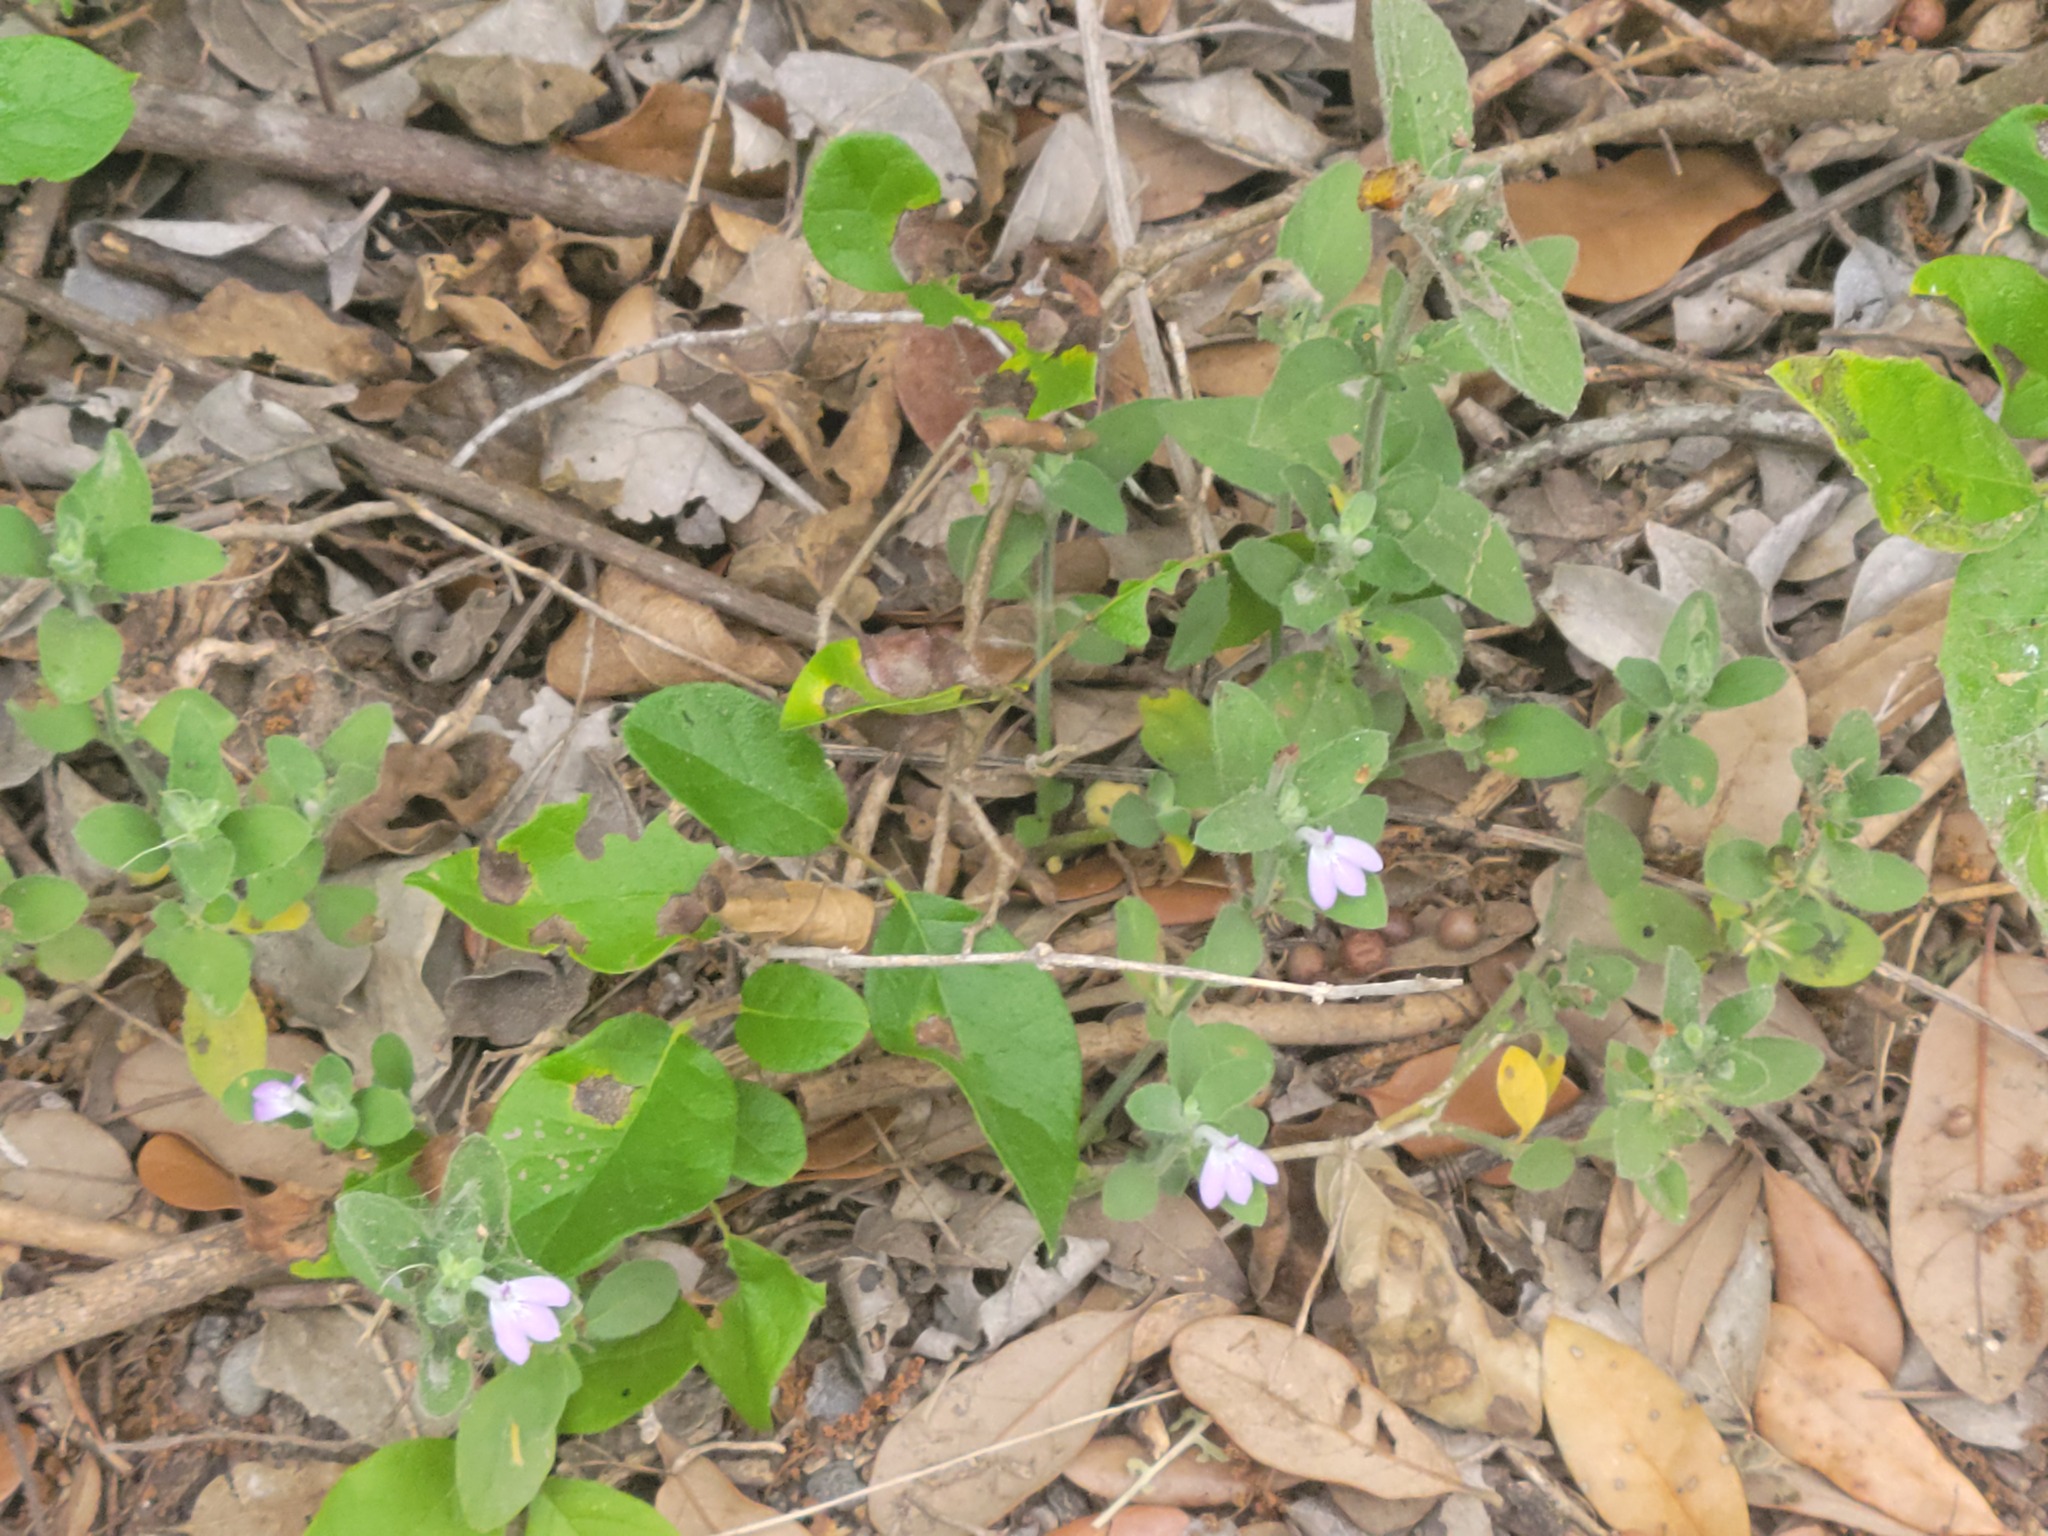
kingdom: Plantae
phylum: Tracheophyta
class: Magnoliopsida
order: Lamiales
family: Acanthaceae
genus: Justicia
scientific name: Justicia pilosella
